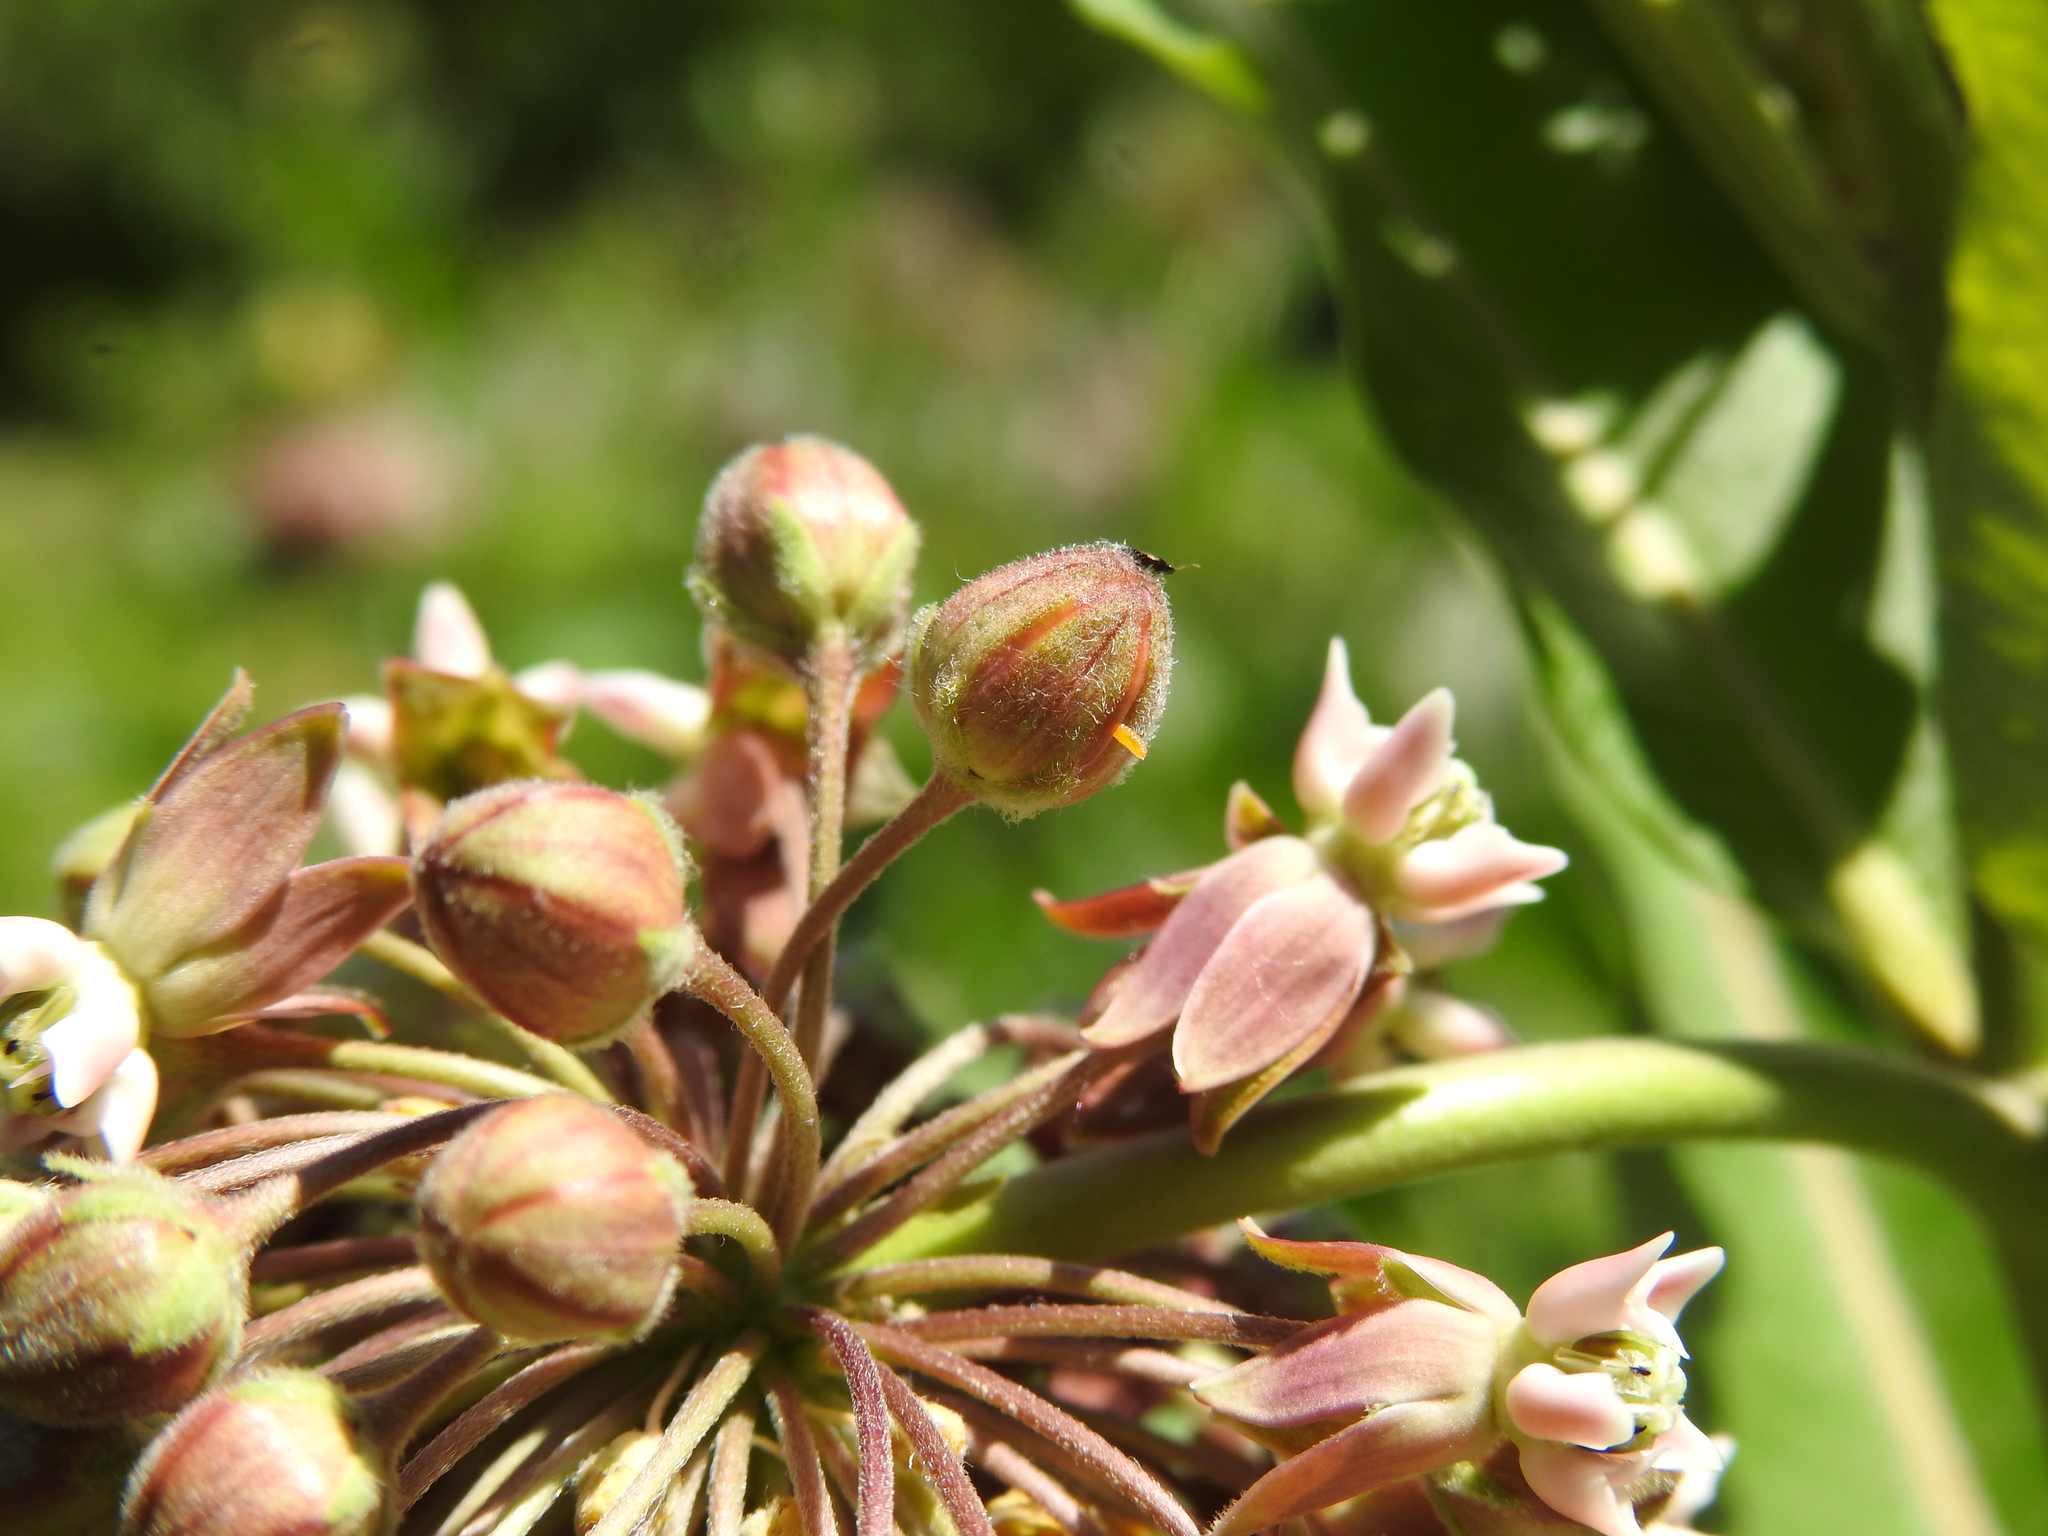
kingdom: Animalia
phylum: Arthropoda
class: Insecta
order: Diptera
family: Cecidomyiidae
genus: Prodiplosis
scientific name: Prodiplosis floricola
